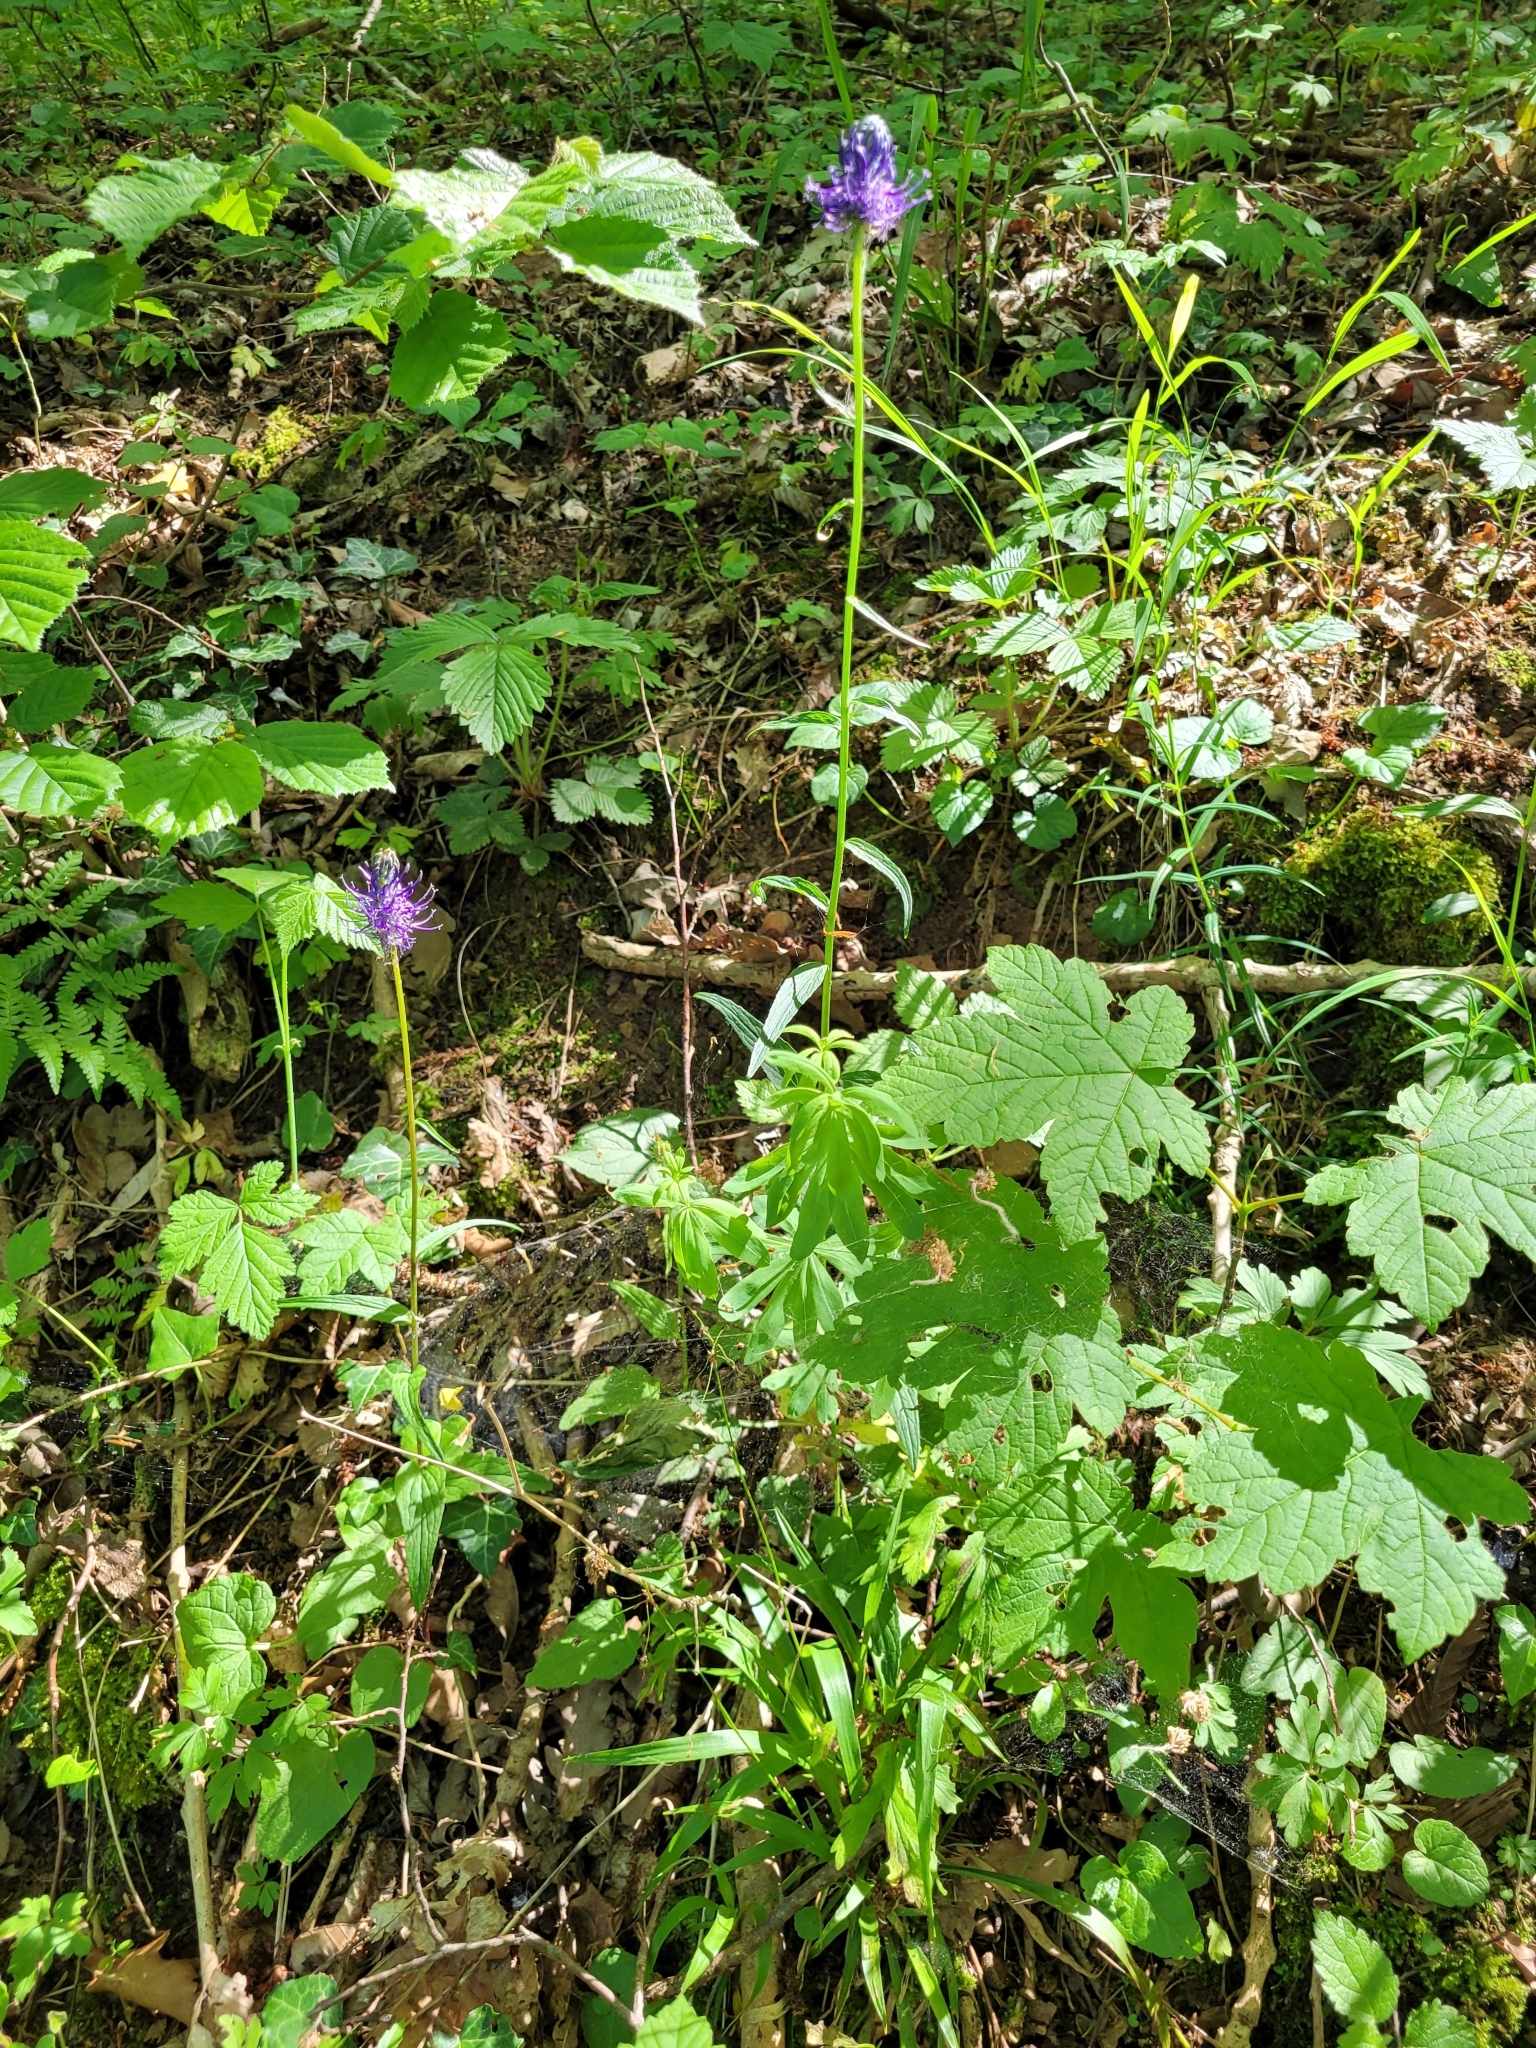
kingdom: Plantae
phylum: Tracheophyta
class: Magnoliopsida
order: Asterales
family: Campanulaceae
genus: Phyteuma
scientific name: Phyteuma nigrum
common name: Black rampion
